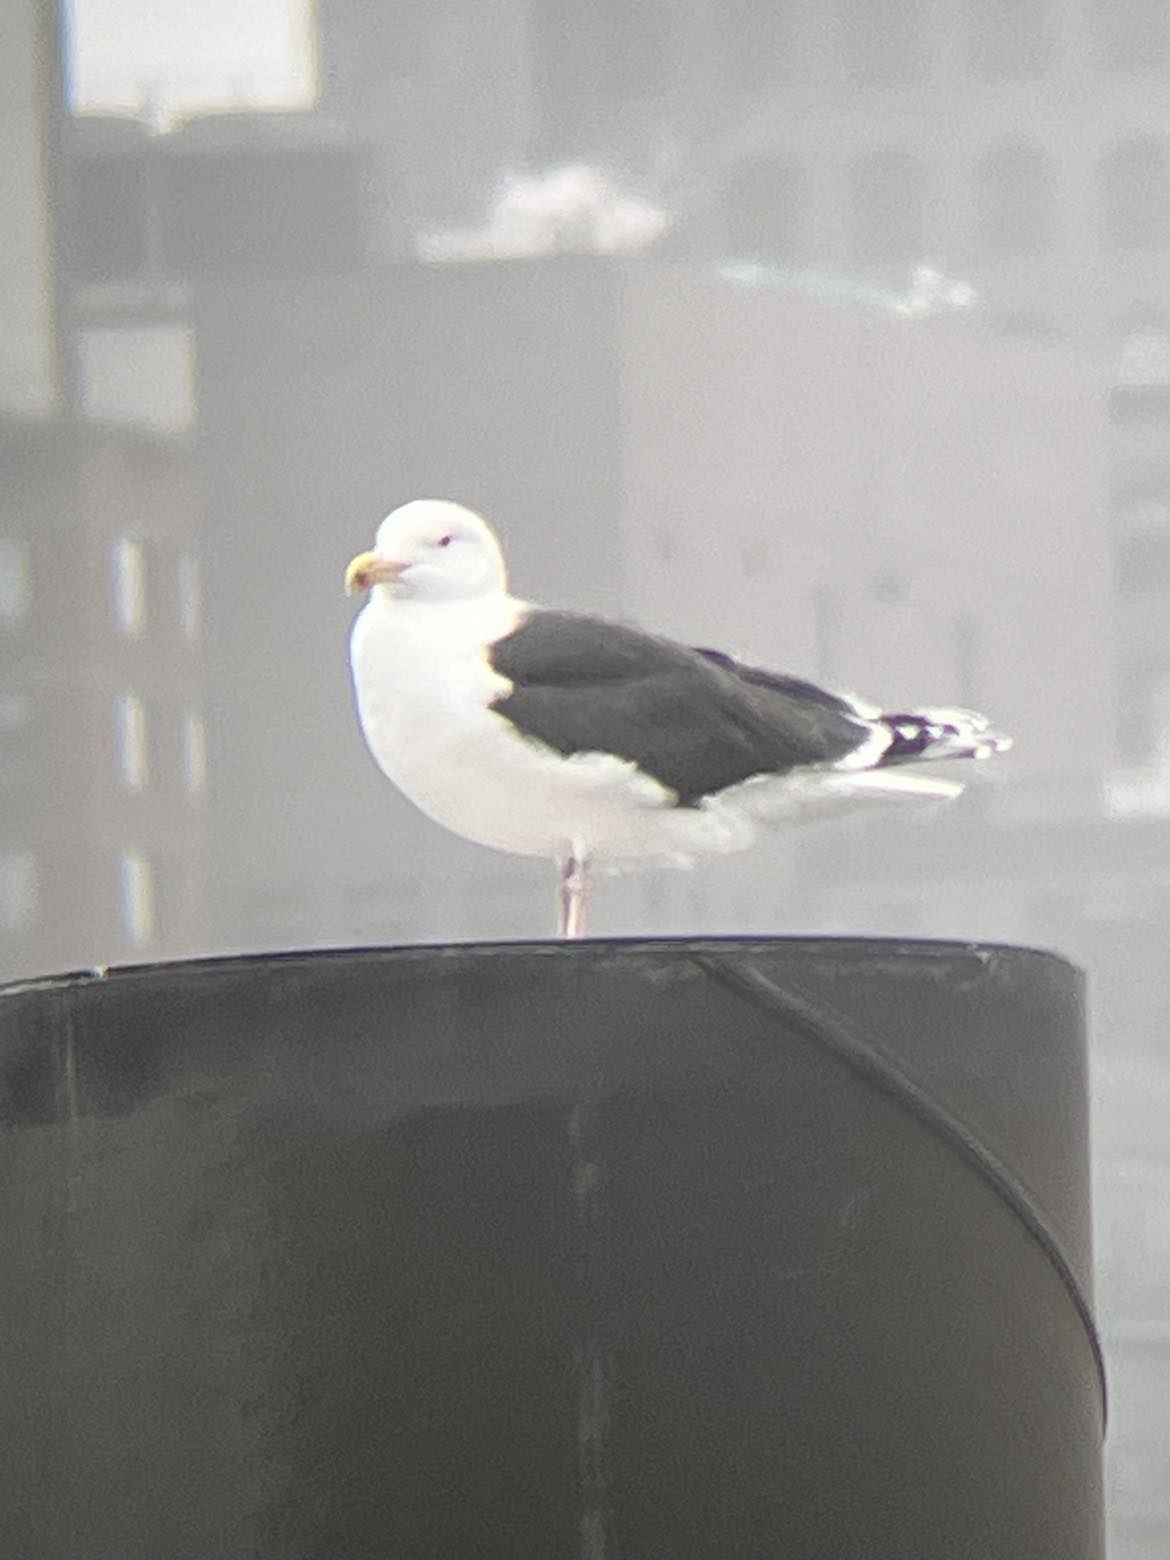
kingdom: Animalia
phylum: Chordata
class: Aves
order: Charadriiformes
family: Laridae
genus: Larus
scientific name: Larus marinus
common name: Great black-backed gull
